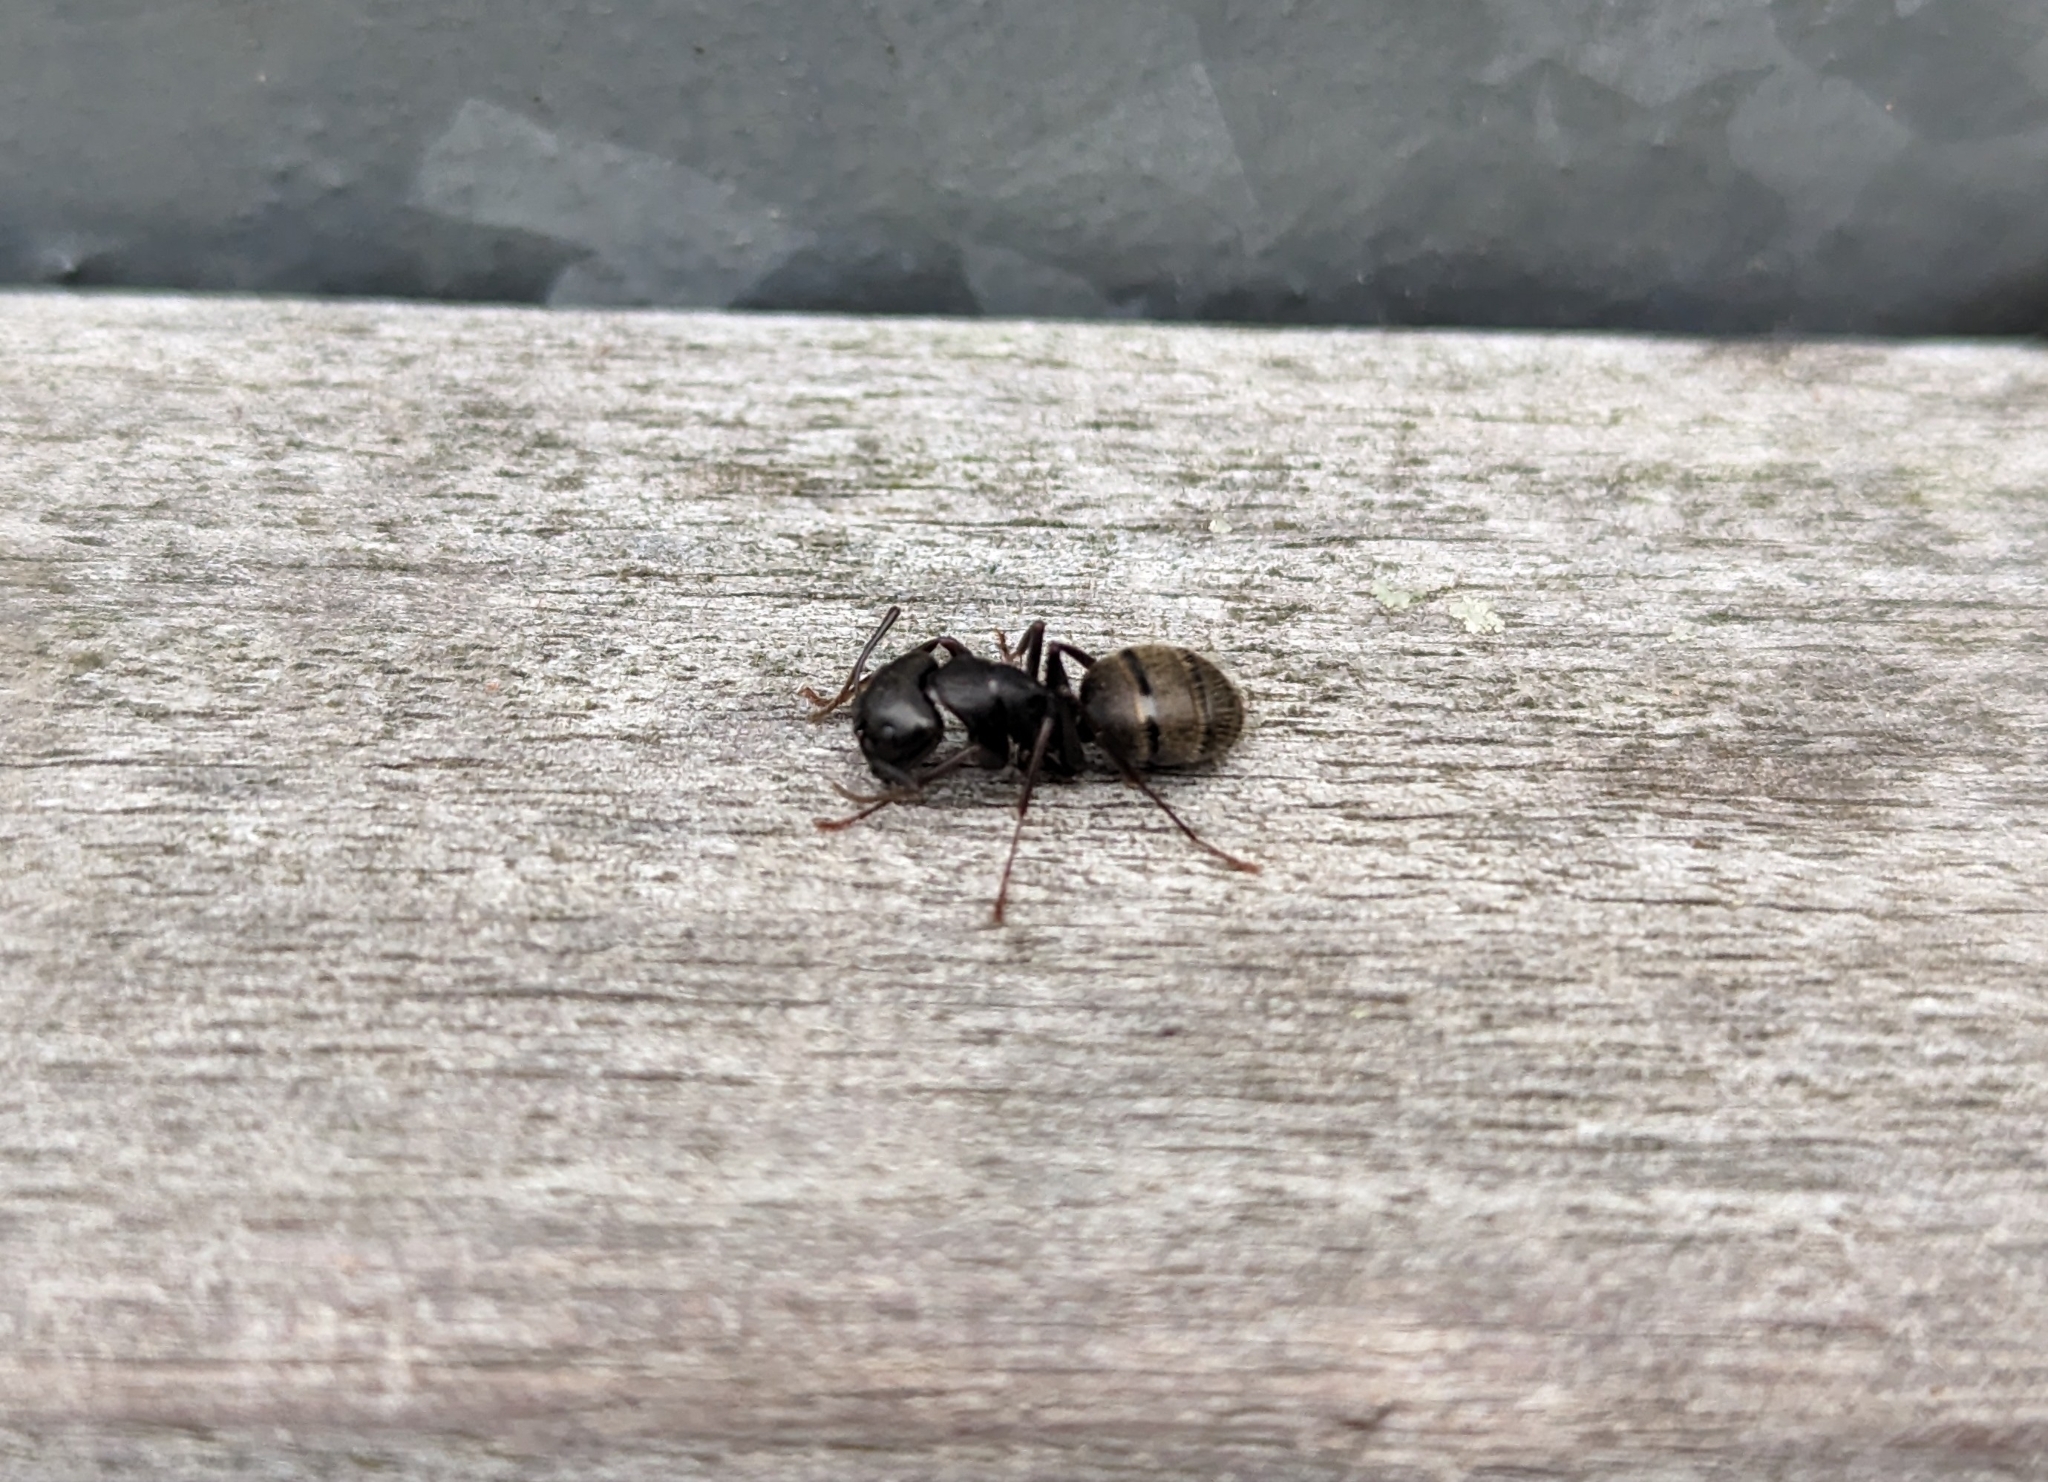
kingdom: Animalia
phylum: Arthropoda
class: Insecta
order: Hymenoptera
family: Formicidae
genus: Camponotus
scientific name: Camponotus pennsylvanicus
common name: Black carpenter ant
